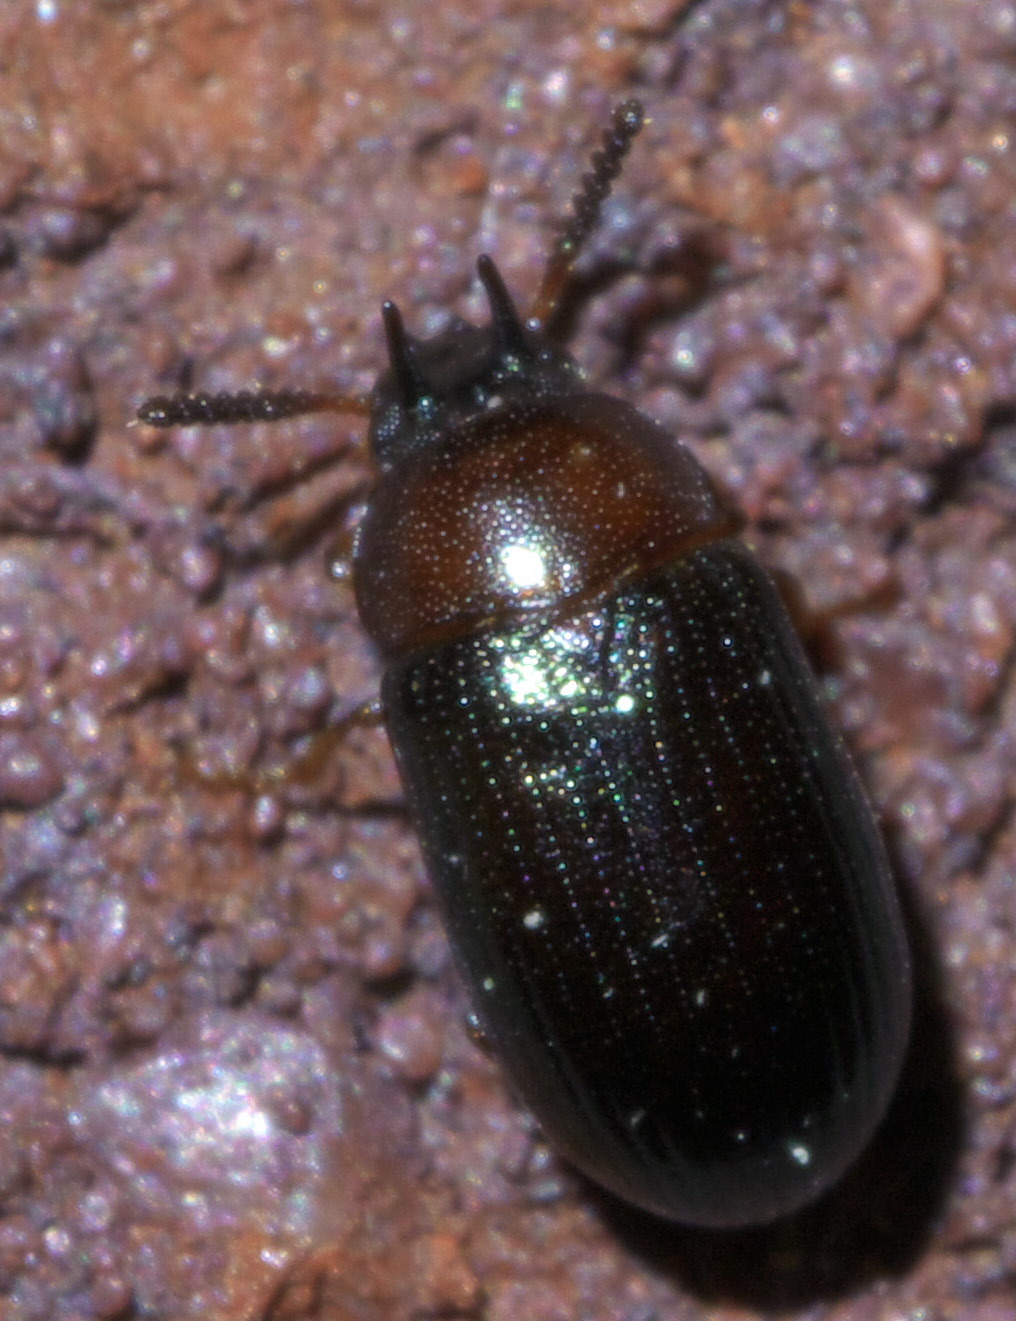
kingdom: Animalia
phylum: Arthropoda
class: Insecta
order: Coleoptera
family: Tenebrionidae
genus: Neomida
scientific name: Neomida bicornis
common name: Two-horned darkling beetle
